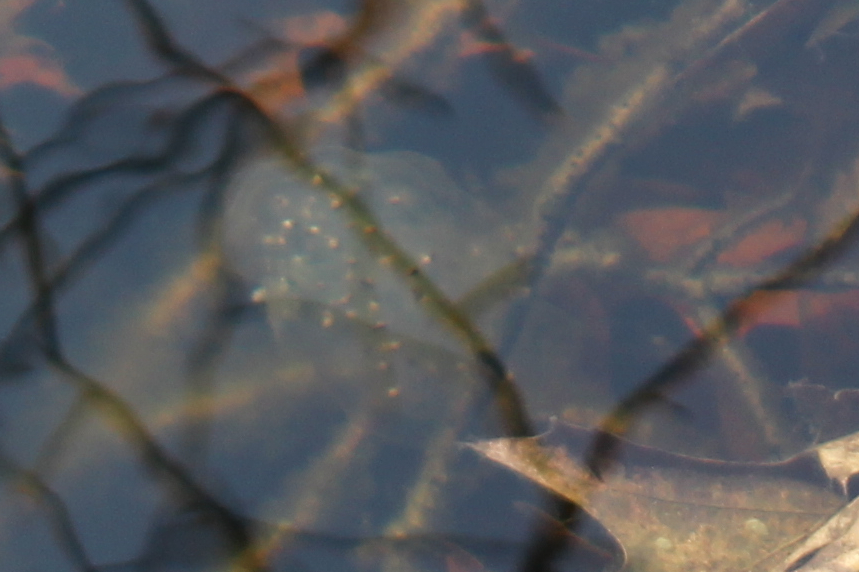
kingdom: Animalia
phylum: Chordata
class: Amphibia
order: Caudata
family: Ambystomatidae
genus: Ambystoma
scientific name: Ambystoma maculatum
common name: Spotted salamander
